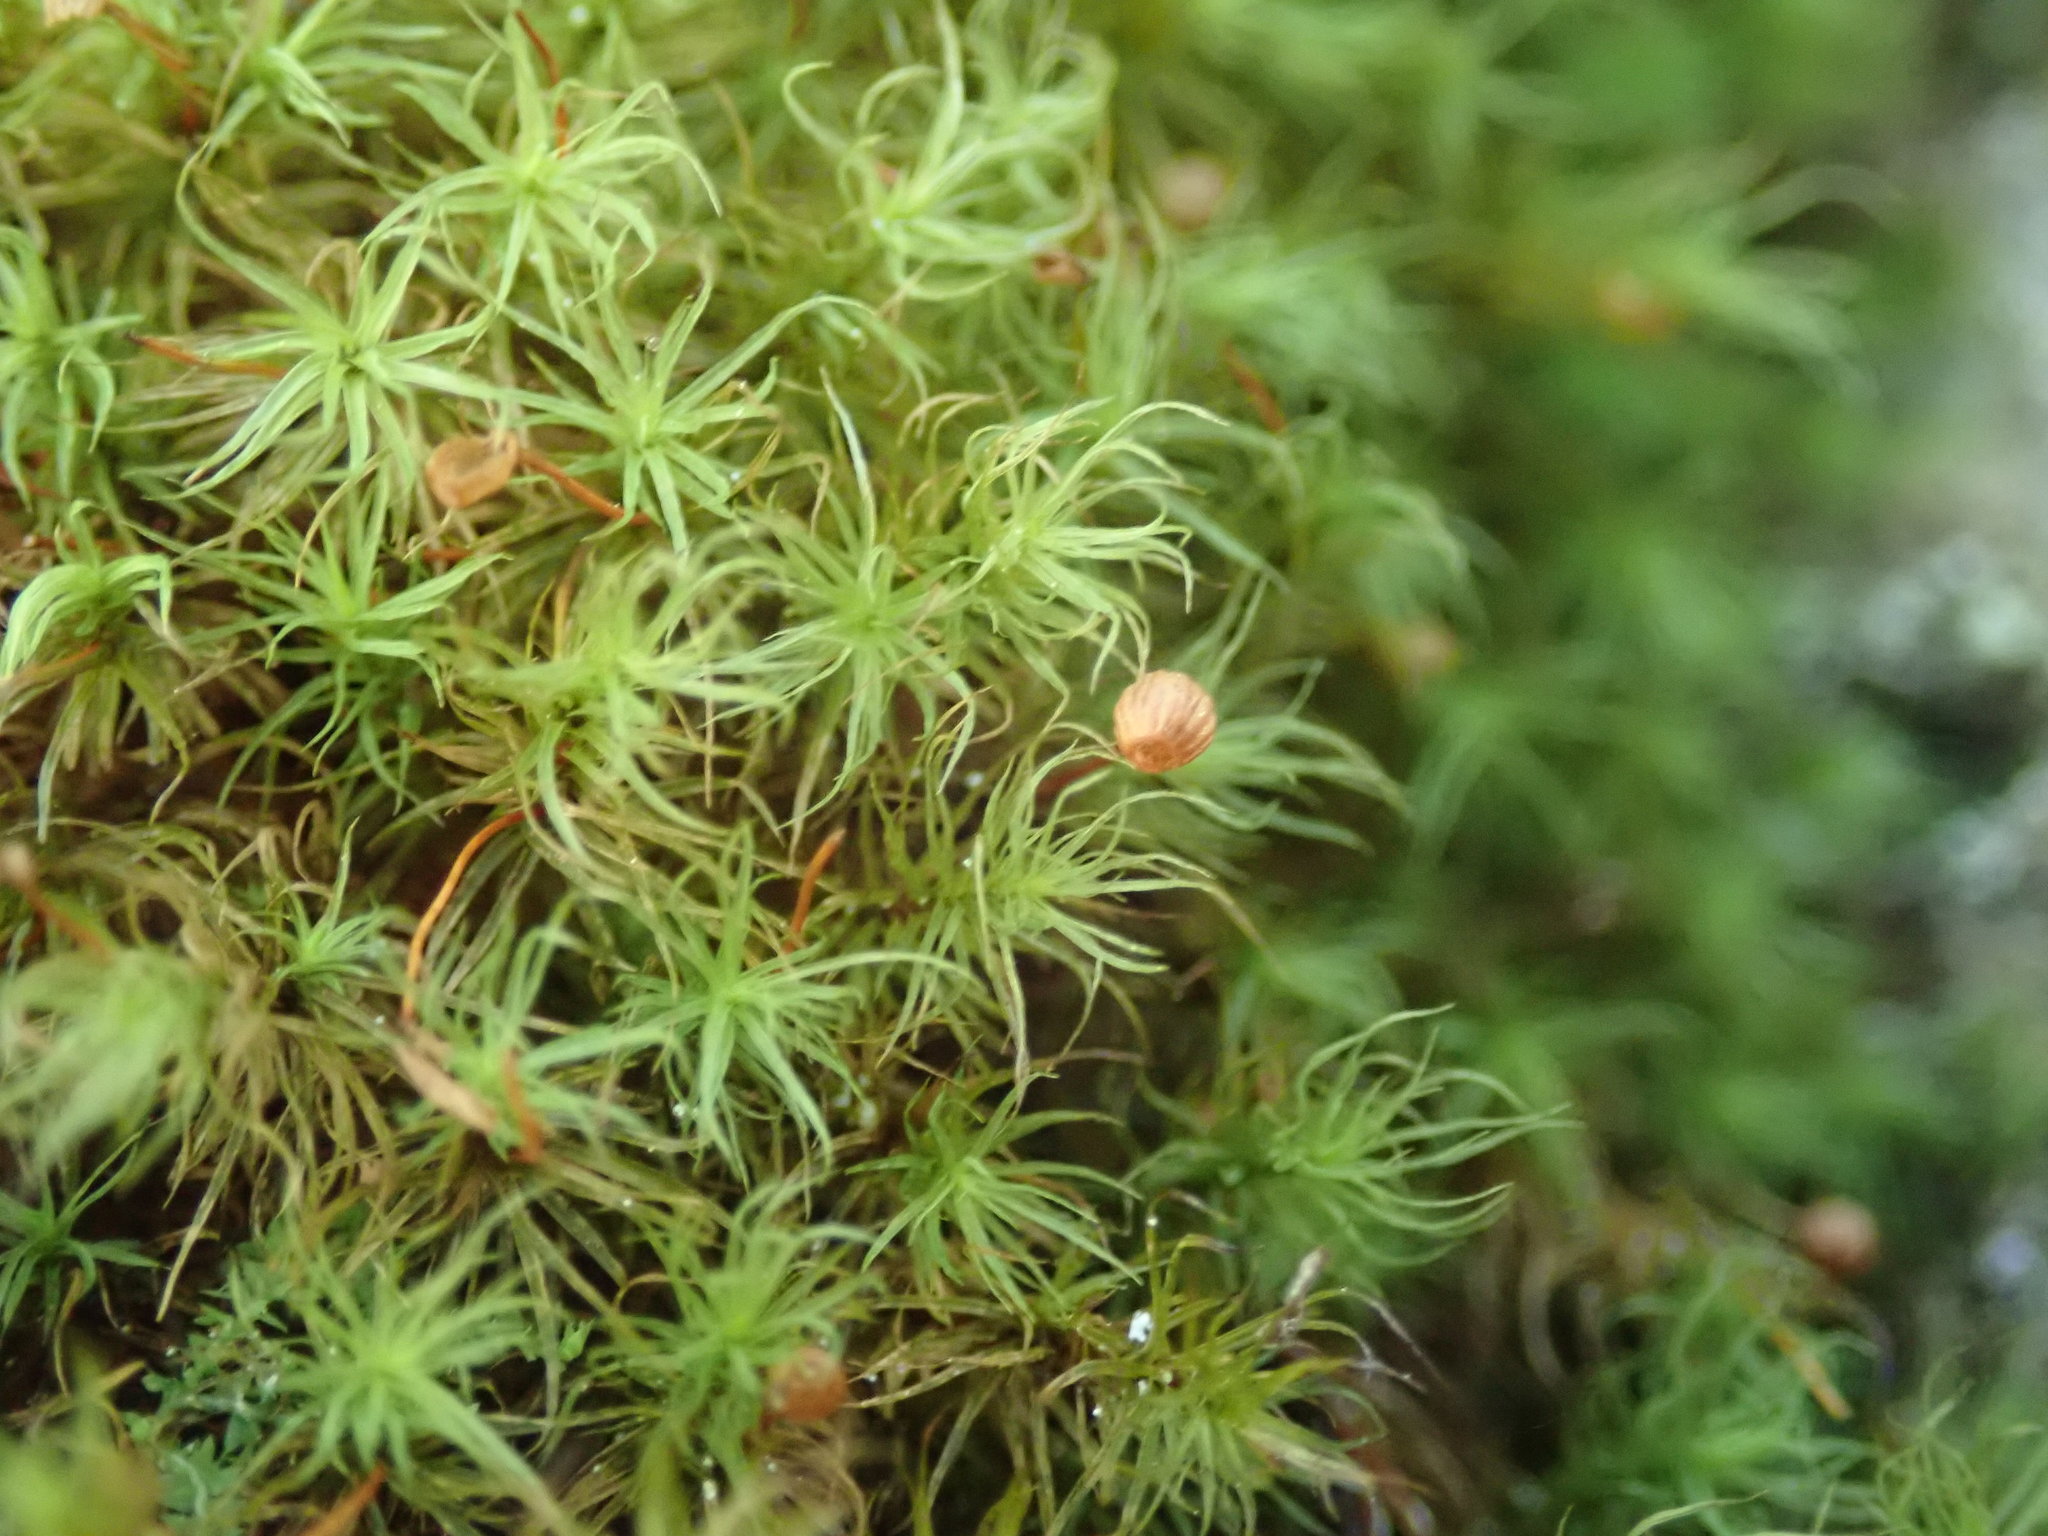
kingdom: Plantae
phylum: Bryophyta
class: Bryopsida
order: Bartramiales
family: Bartramiaceae
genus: Bartramia
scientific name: Bartramia ithyphylla
